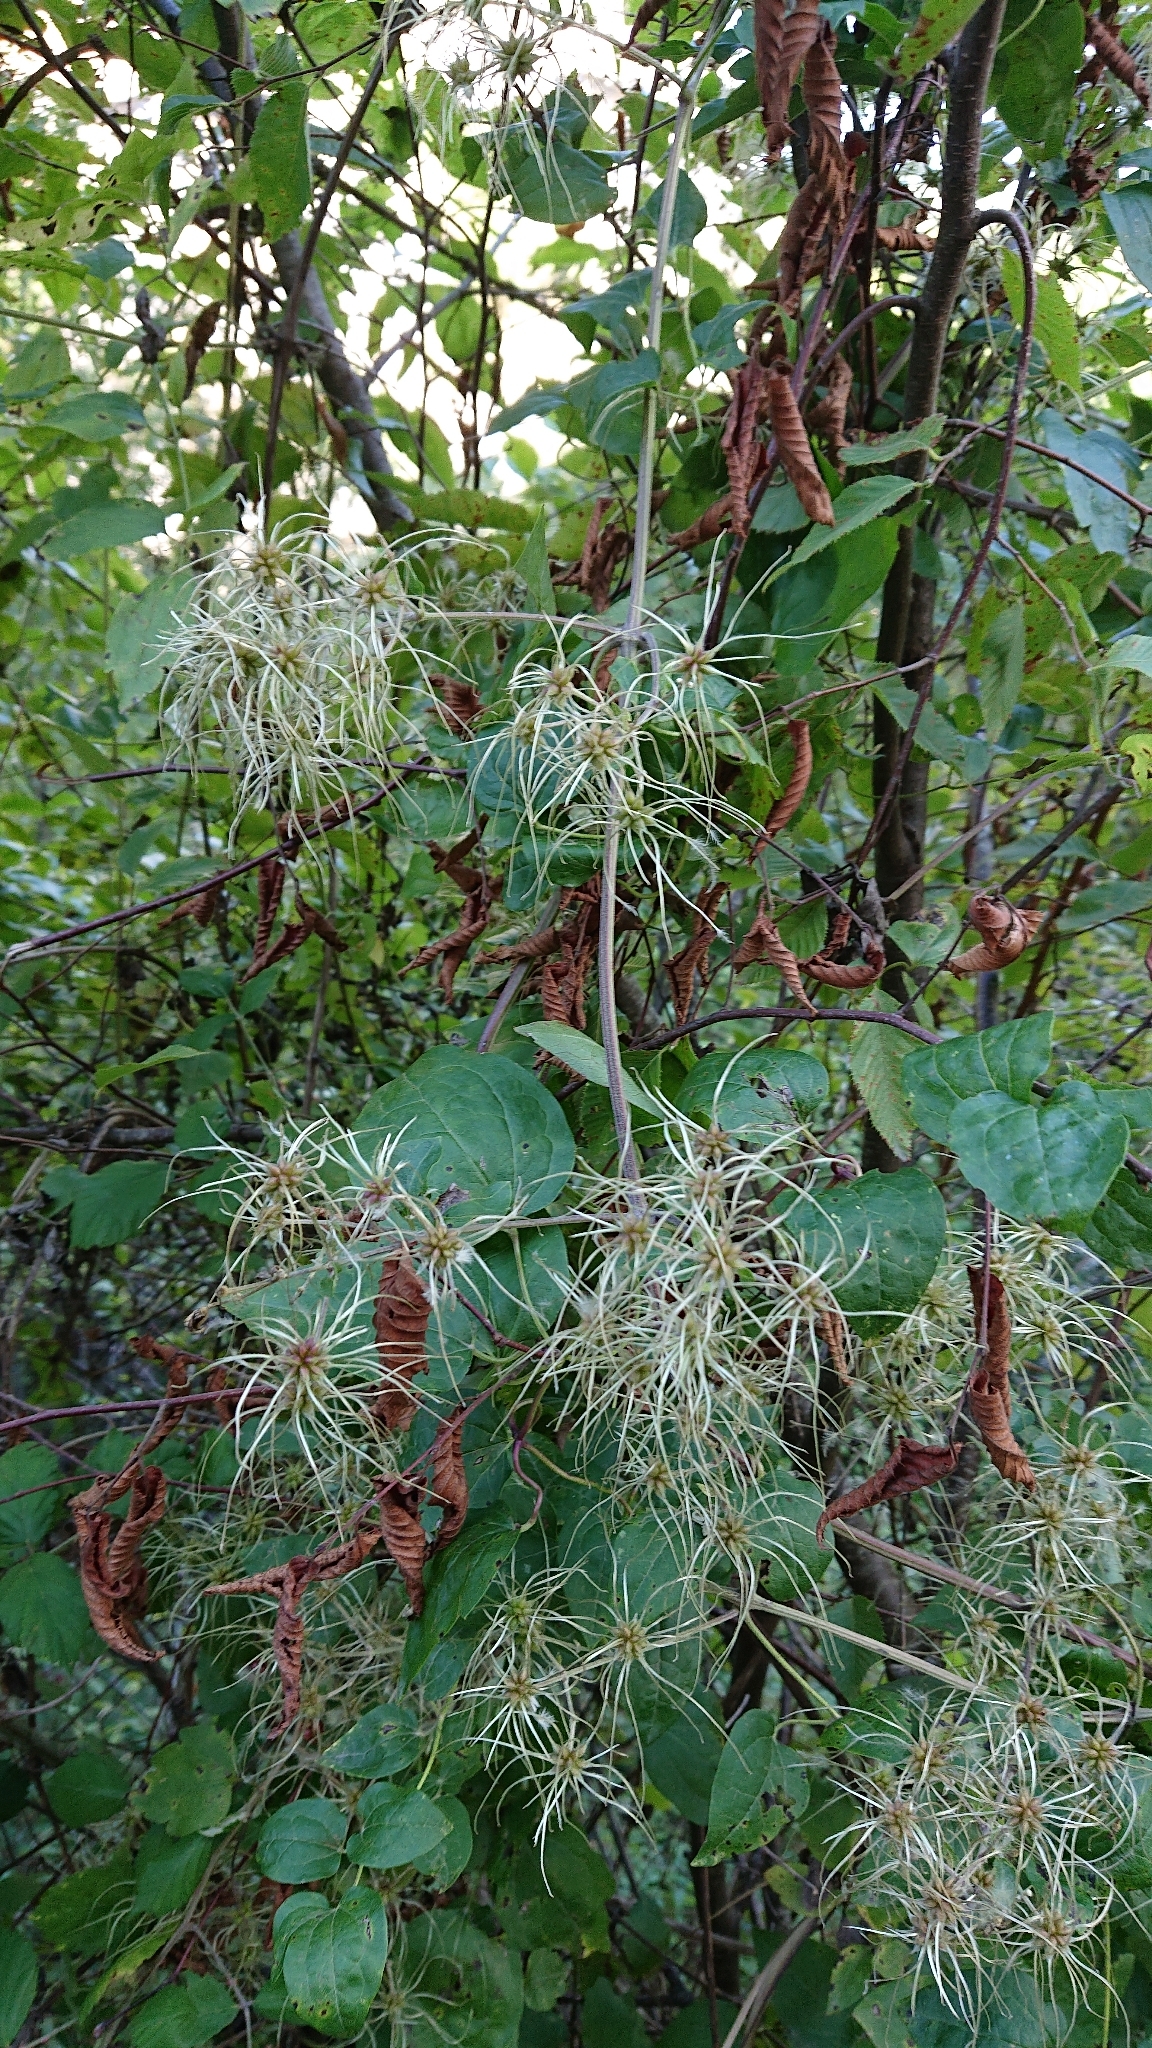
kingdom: Plantae
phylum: Tracheophyta
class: Magnoliopsida
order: Ranunculales
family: Ranunculaceae
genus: Clematis
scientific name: Clematis vitalba
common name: Evergreen clematis
